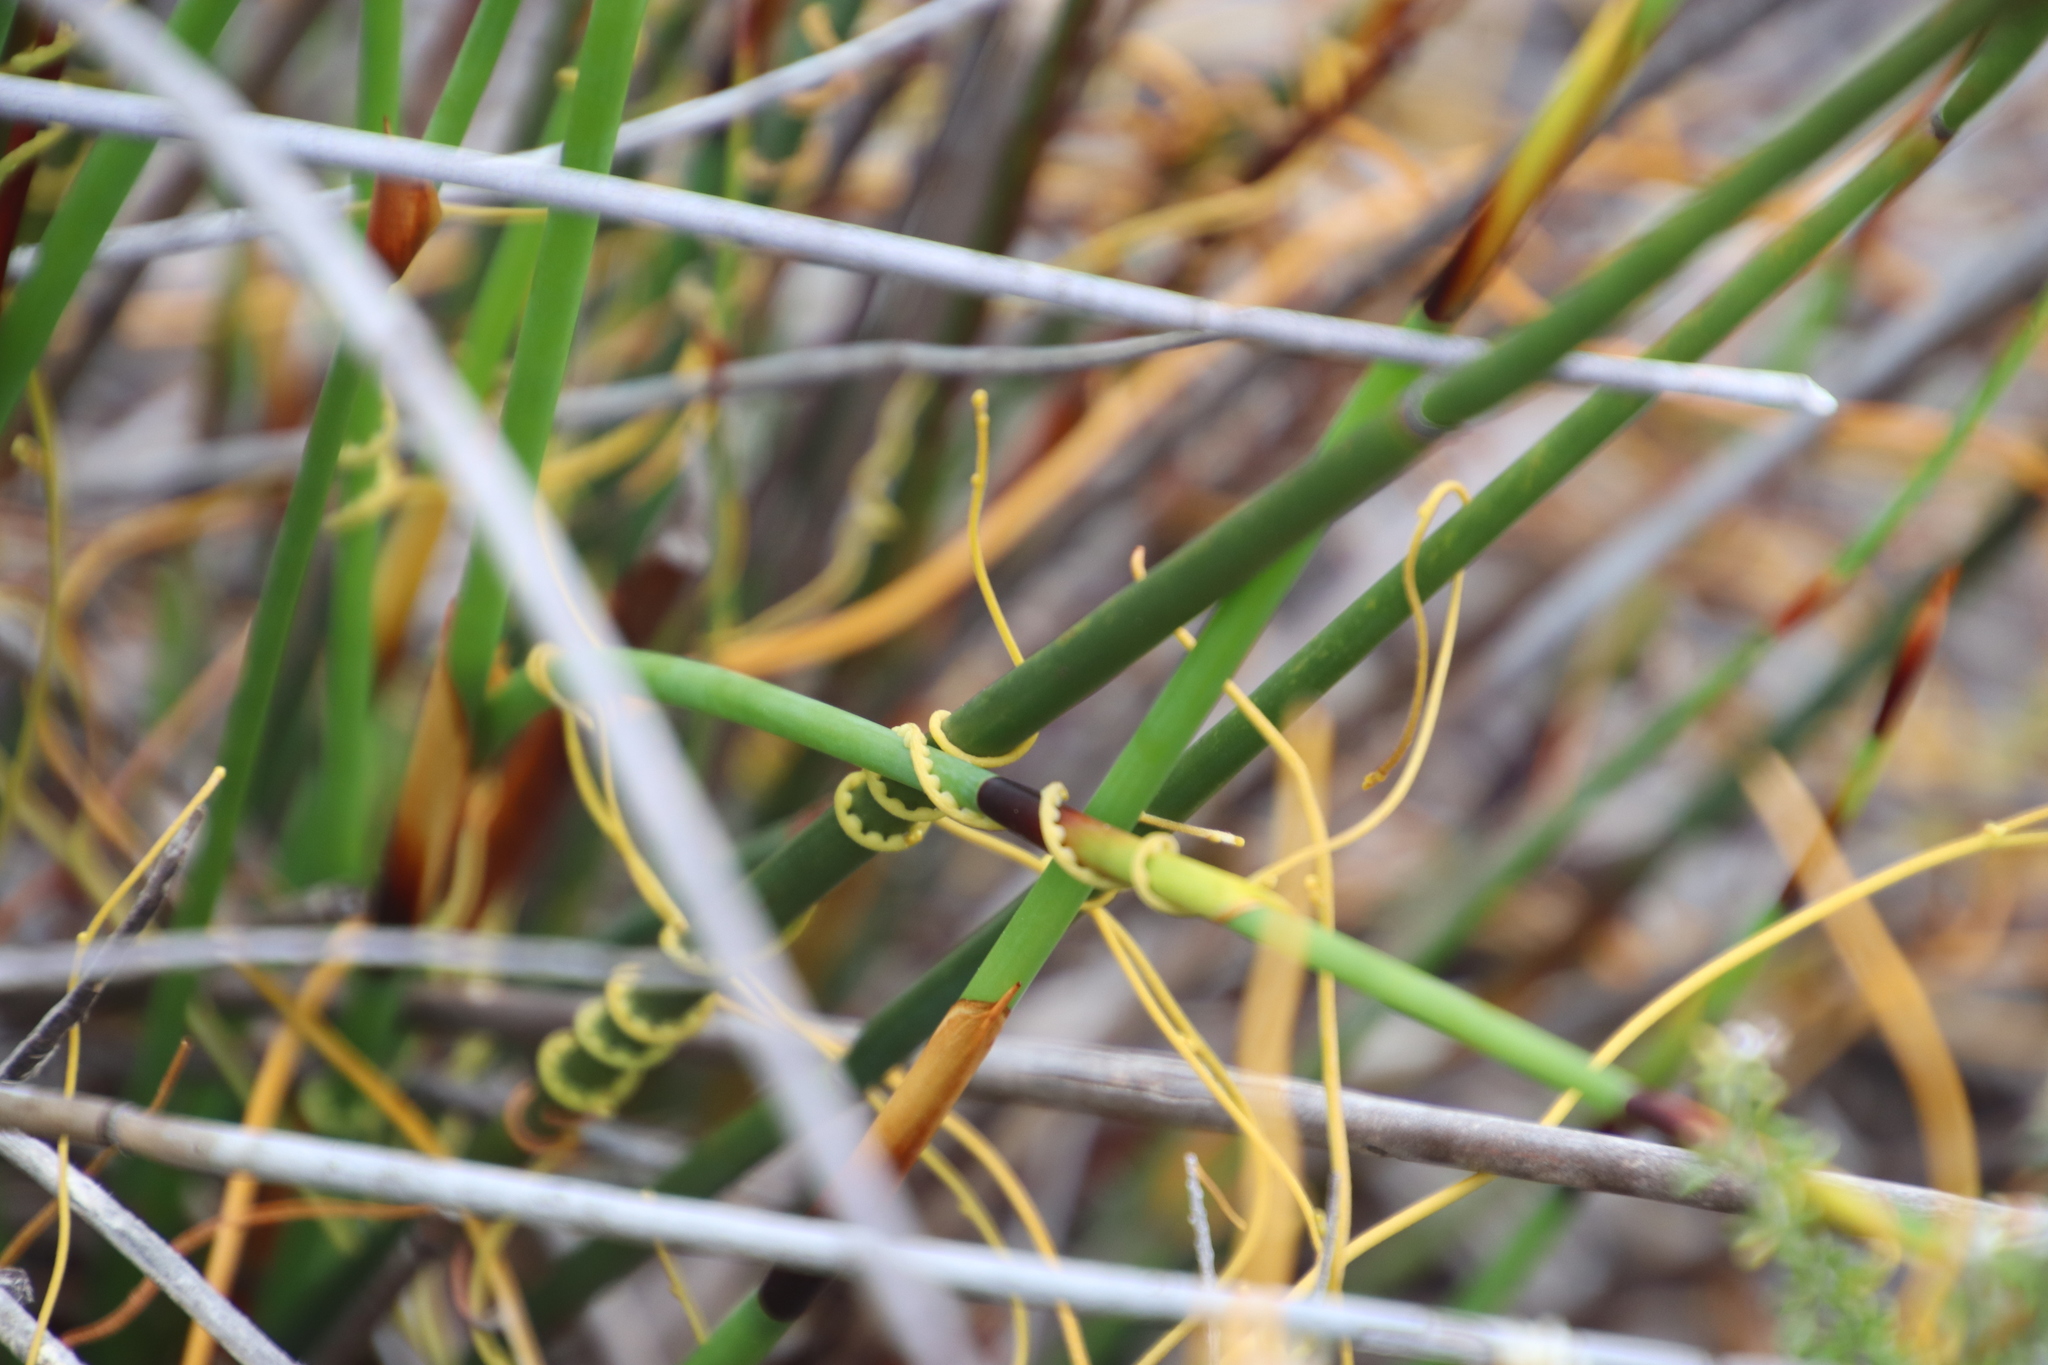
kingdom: Plantae
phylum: Tracheophyta
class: Liliopsida
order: Poales
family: Restionaceae
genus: Elegia
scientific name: Elegia cuspidata
